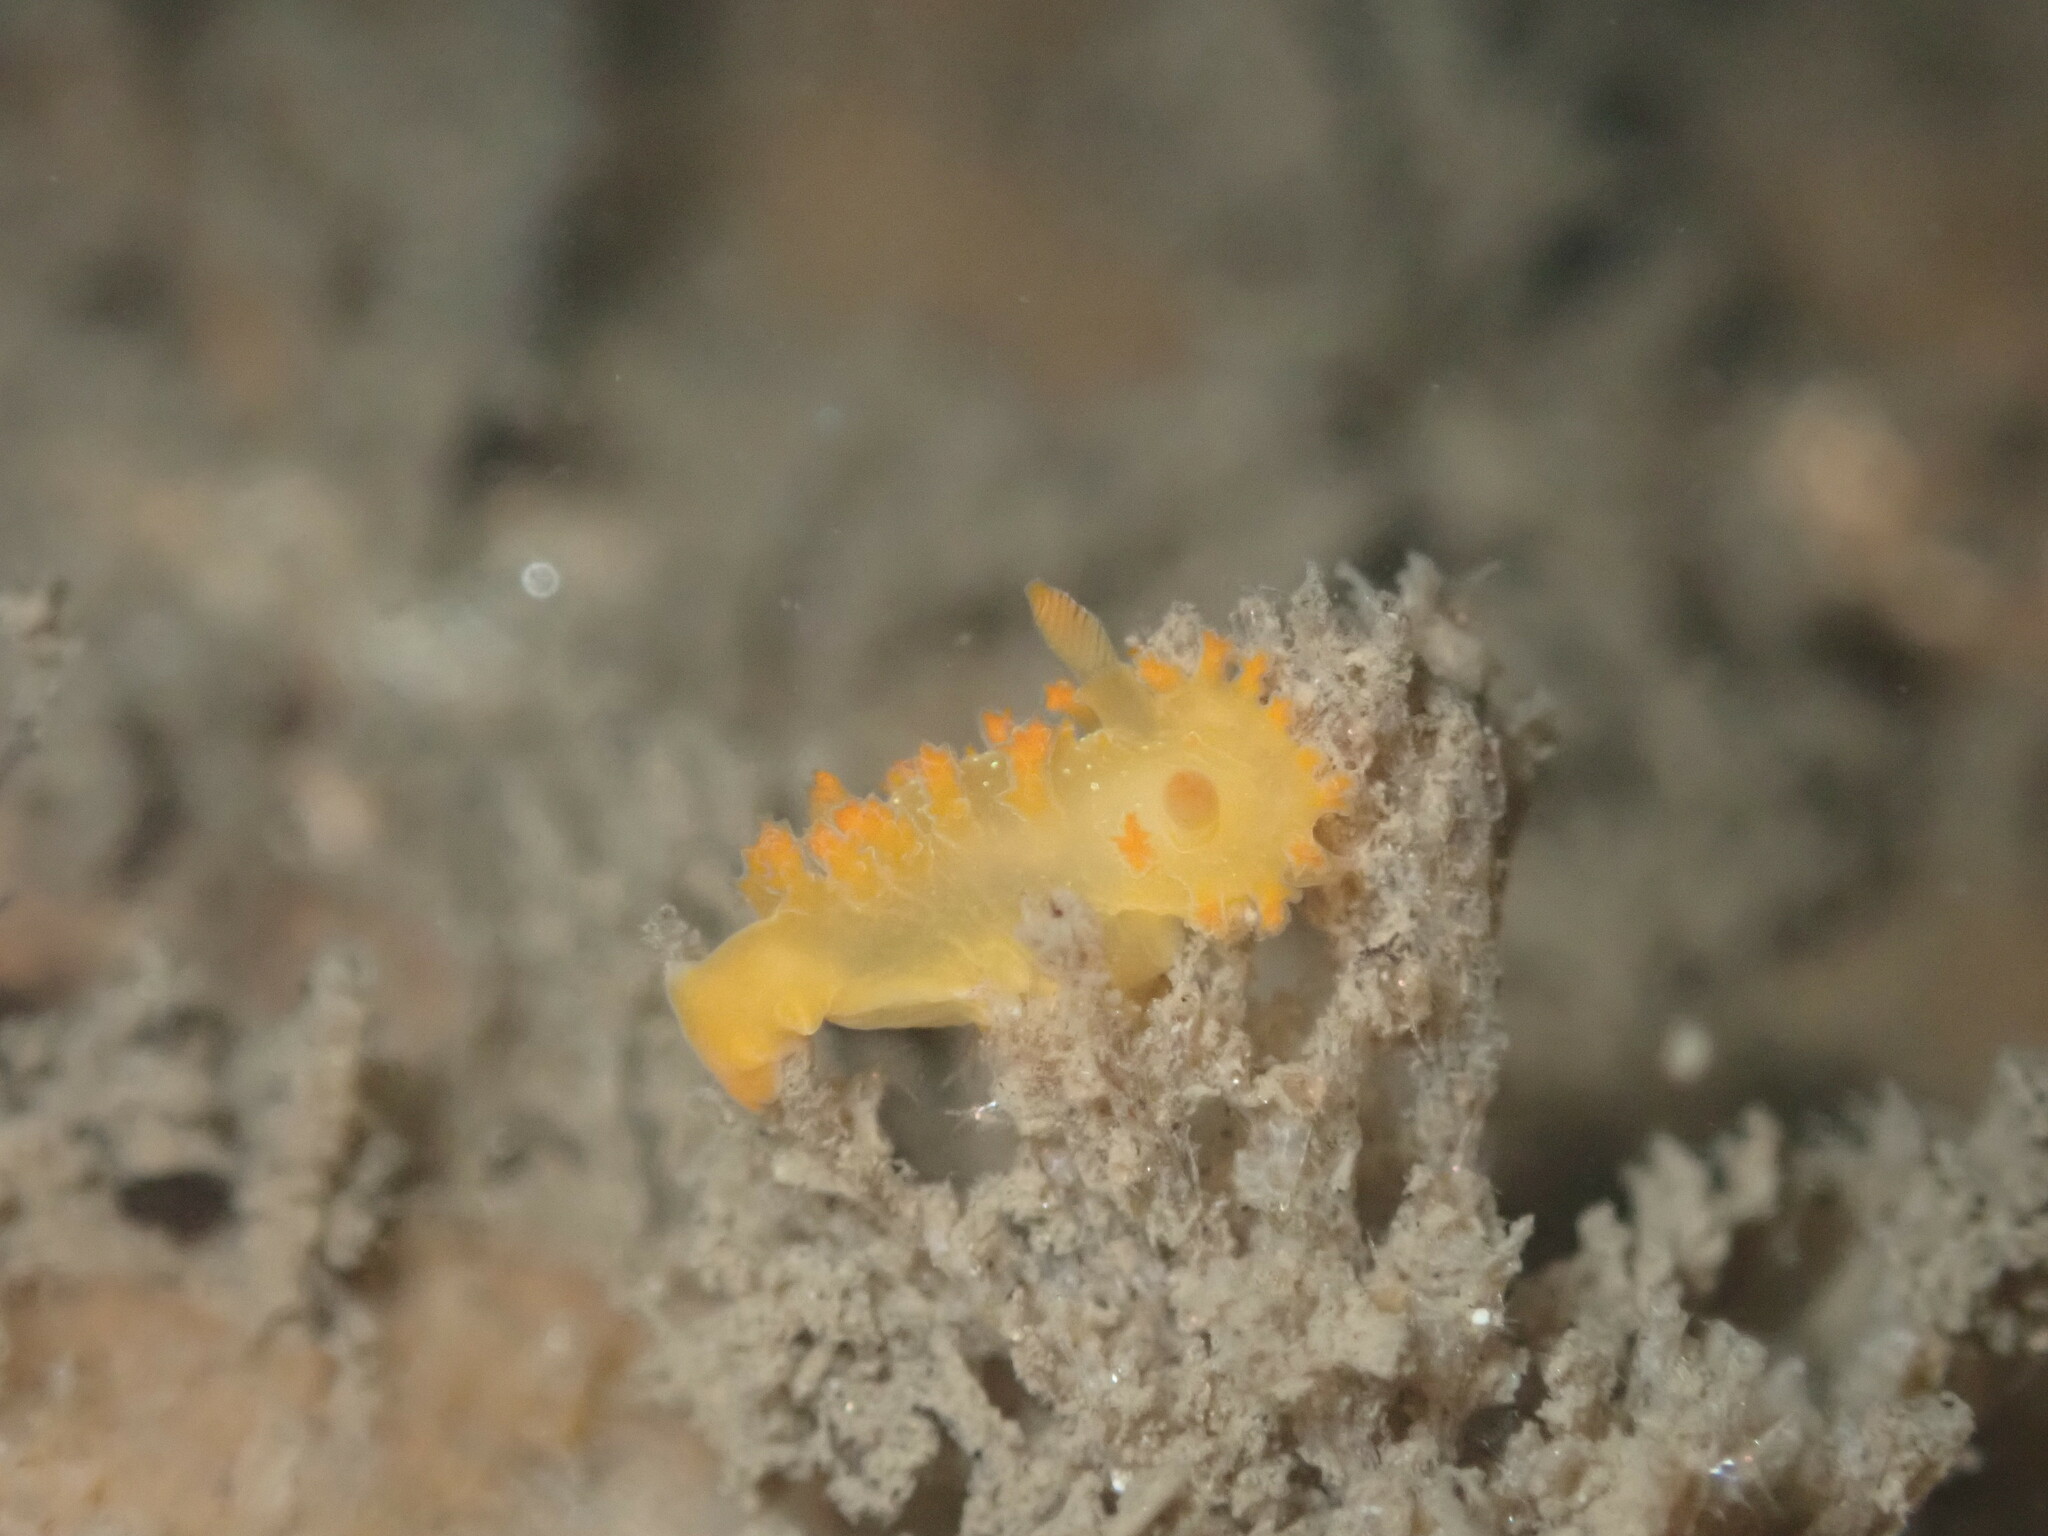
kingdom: Animalia
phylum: Mollusca
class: Gastropoda
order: Nudibranchia
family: Polyceridae
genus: Triopha
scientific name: Triopha maculata
